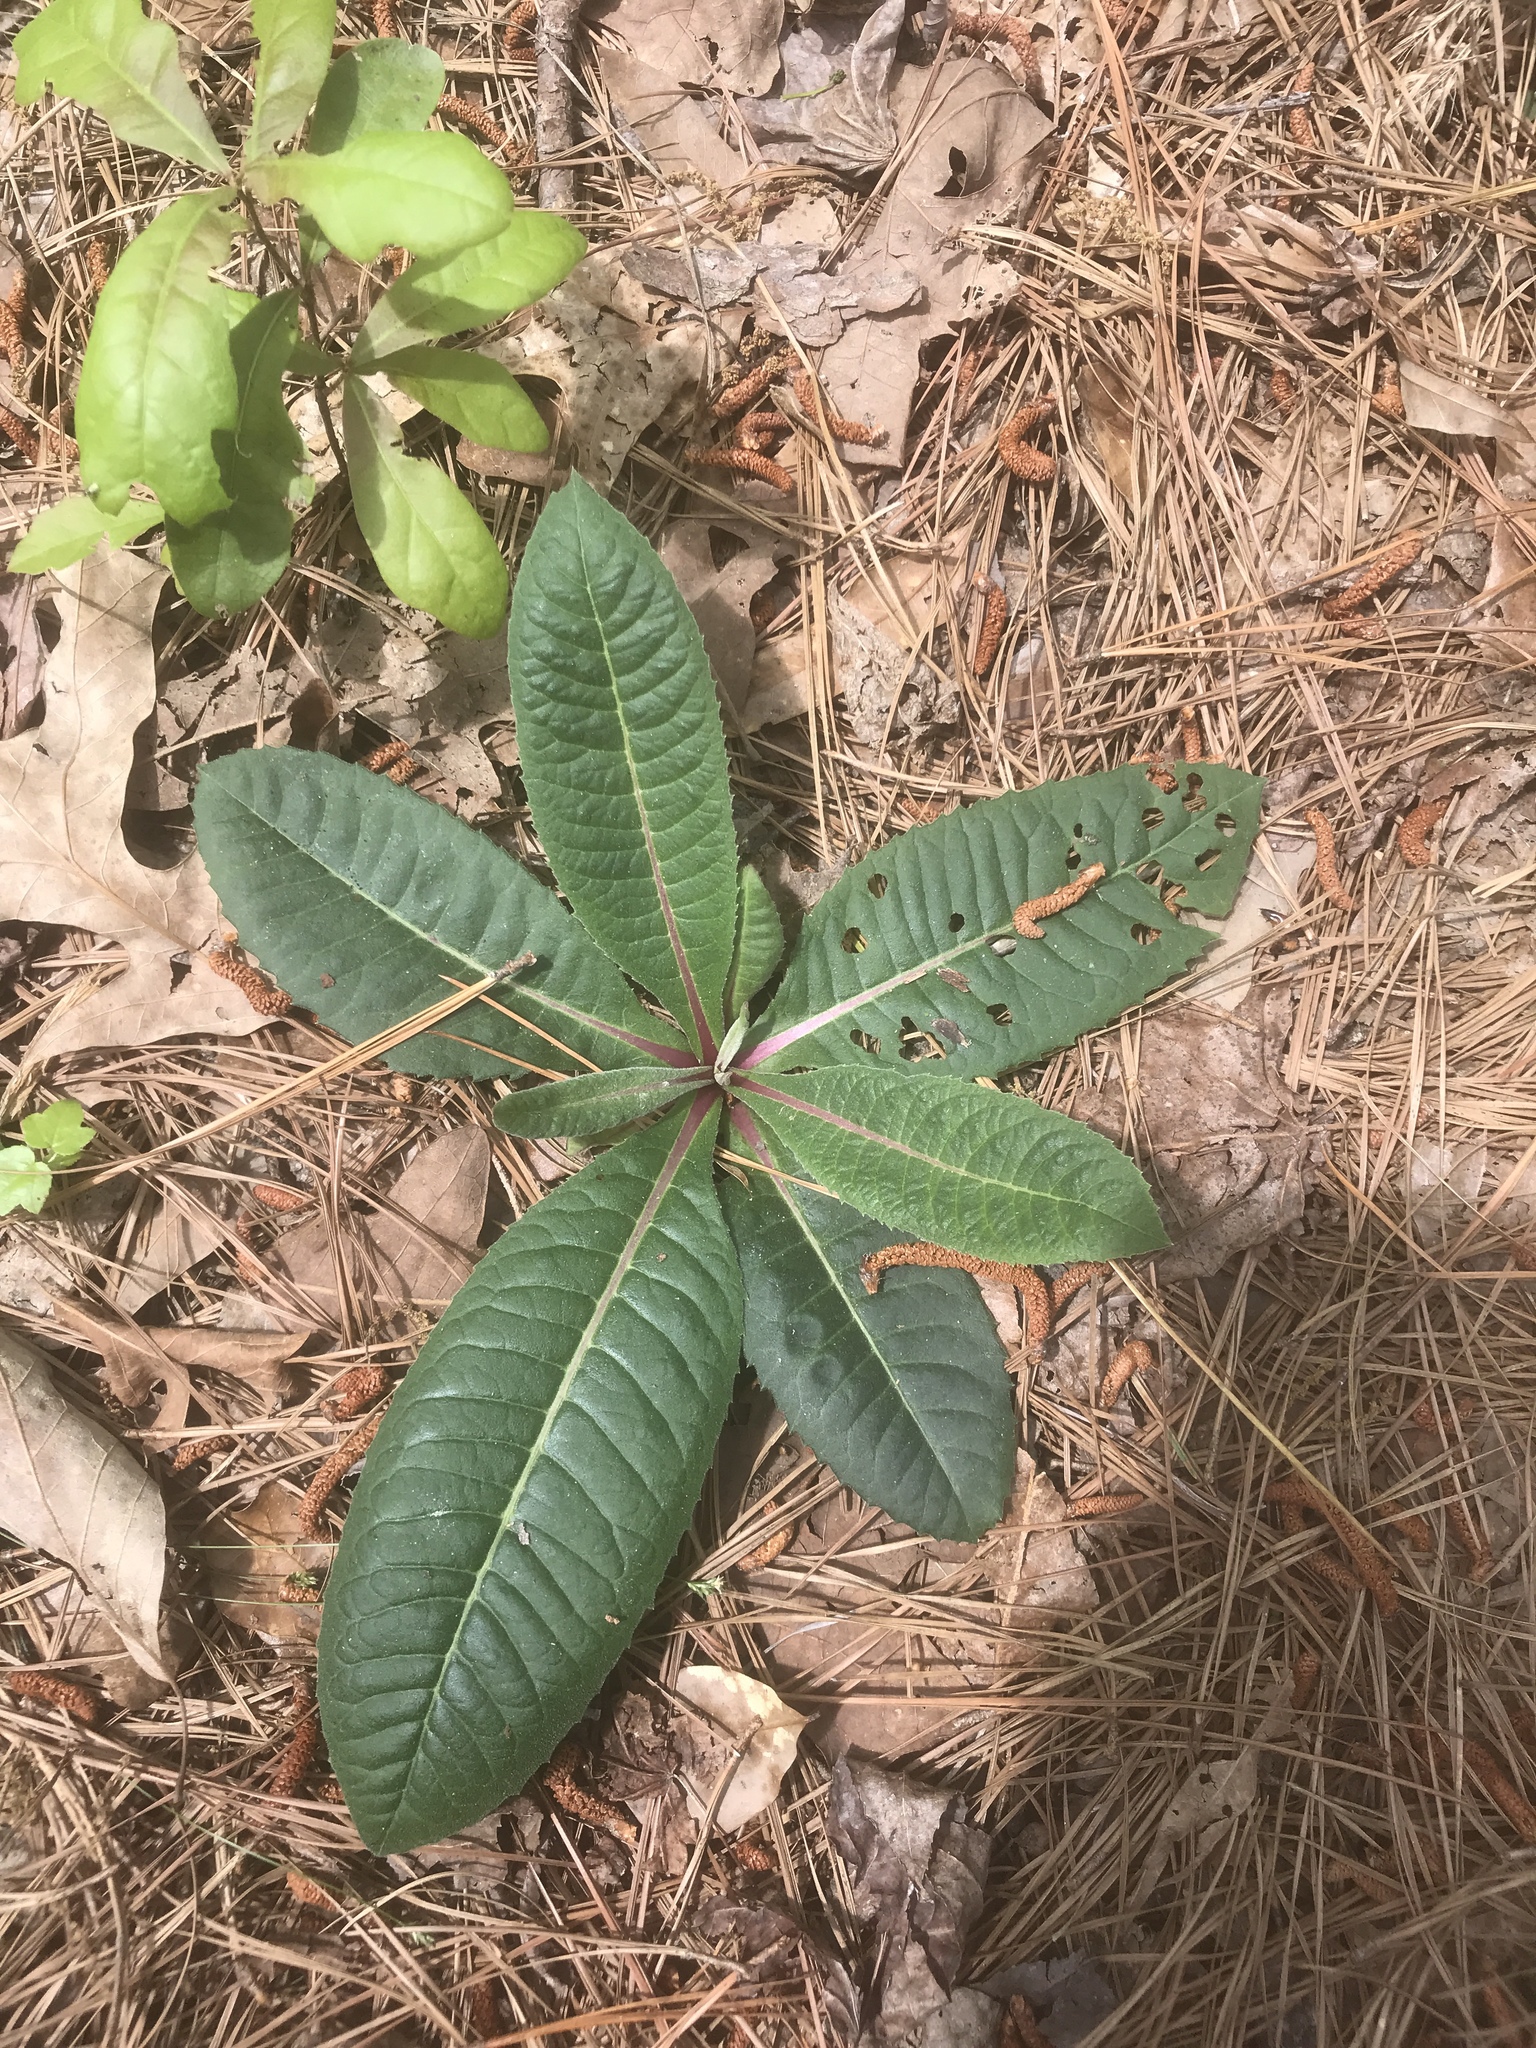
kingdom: Plantae
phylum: Tracheophyta
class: Magnoliopsida
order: Asterales
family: Asteraceae
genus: Vernonia
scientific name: Vernonia acaulis
